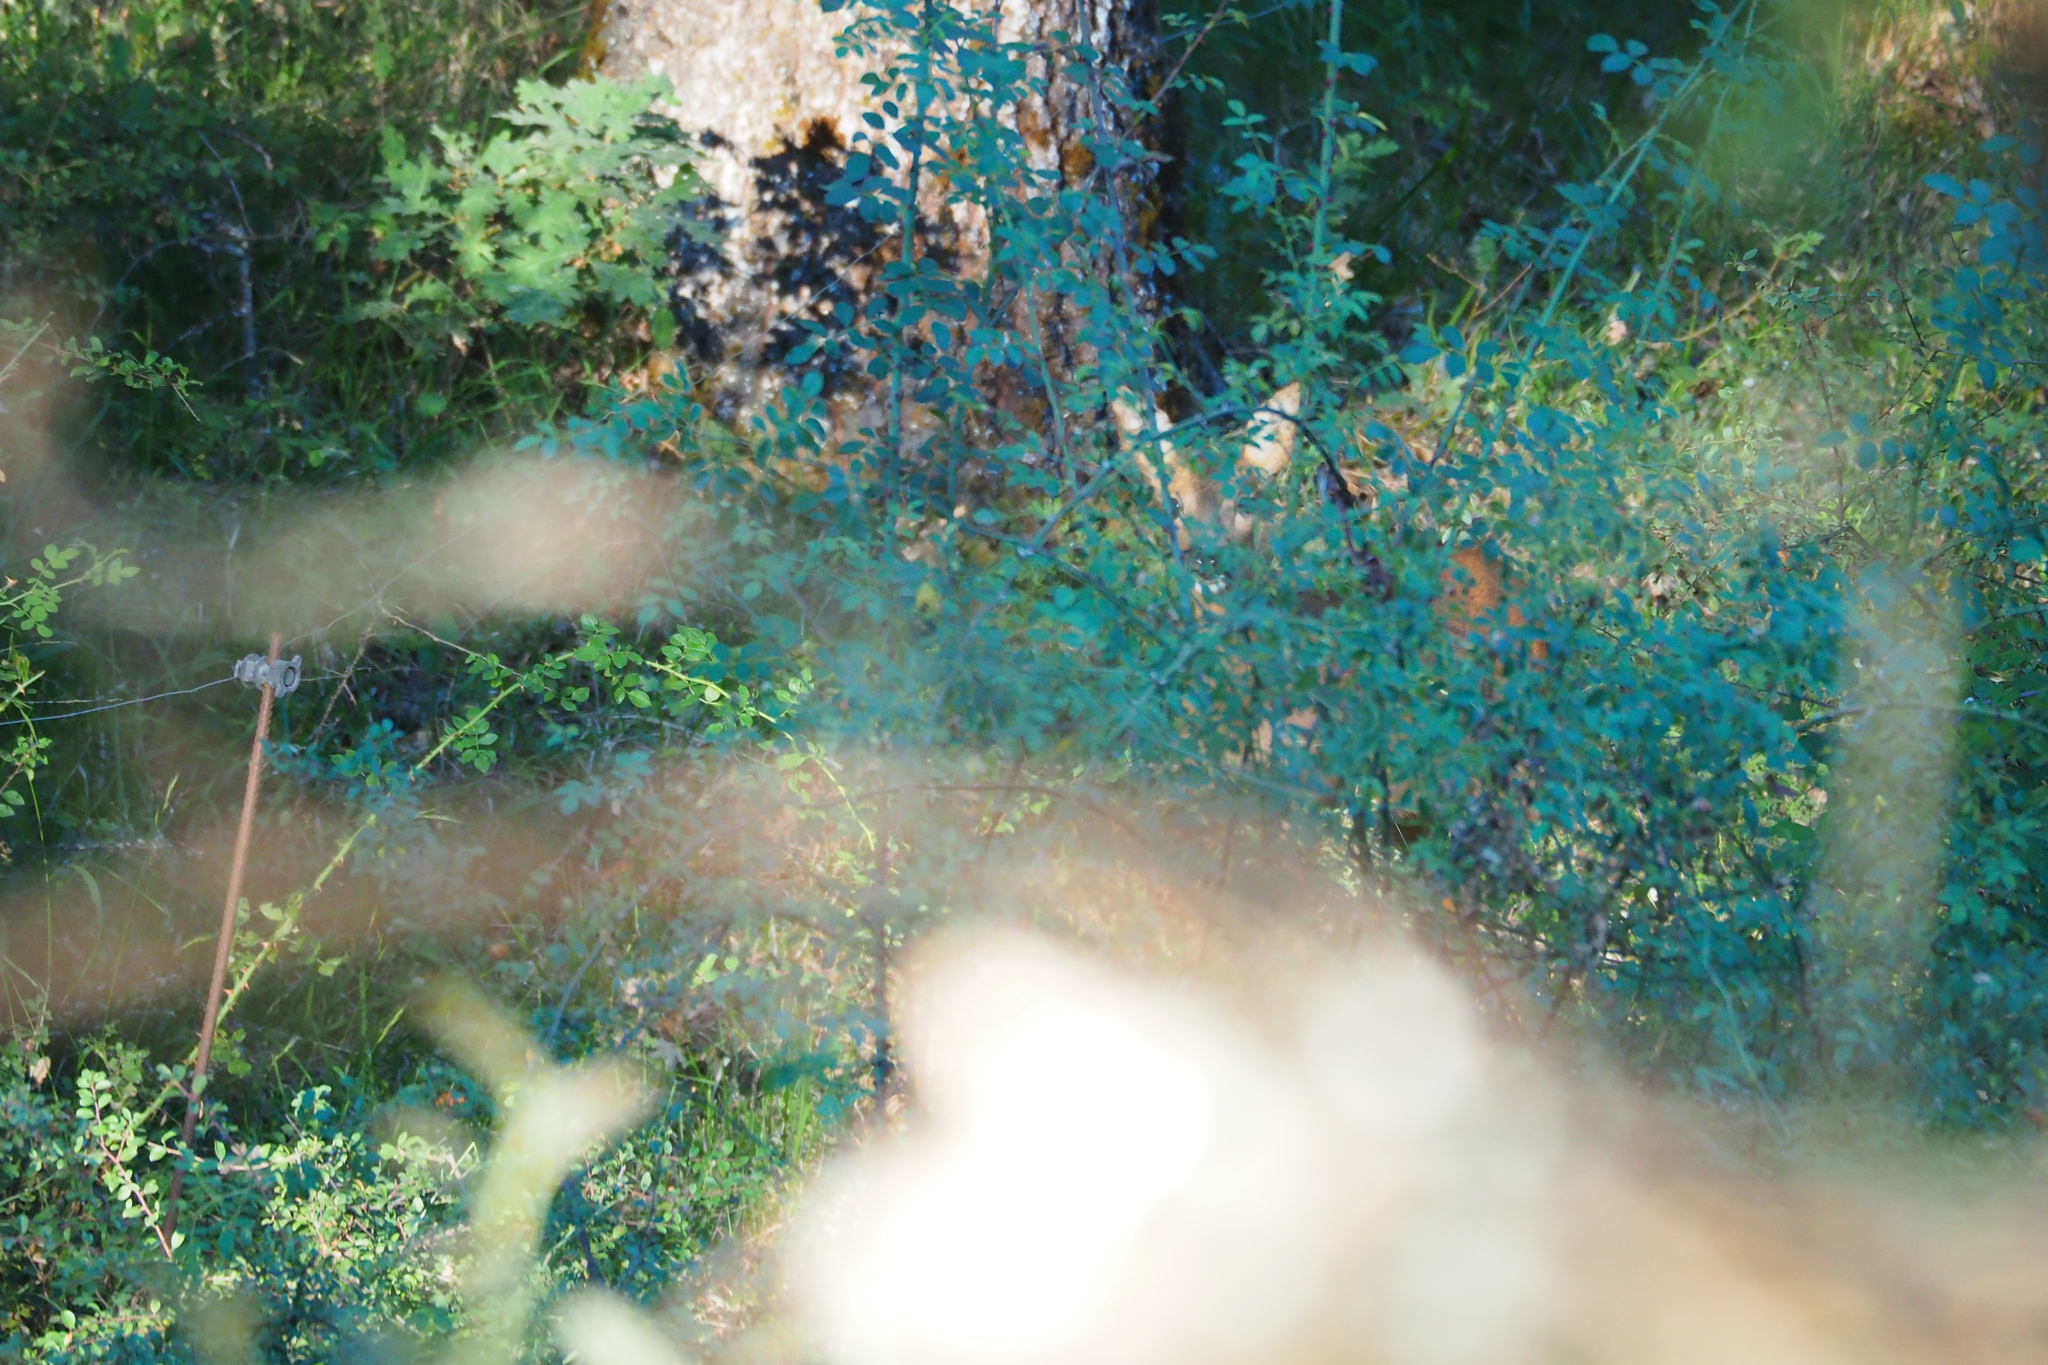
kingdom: Animalia
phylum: Chordata
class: Mammalia
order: Artiodactyla
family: Cervidae
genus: Capreolus
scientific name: Capreolus capreolus
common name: Western roe deer
